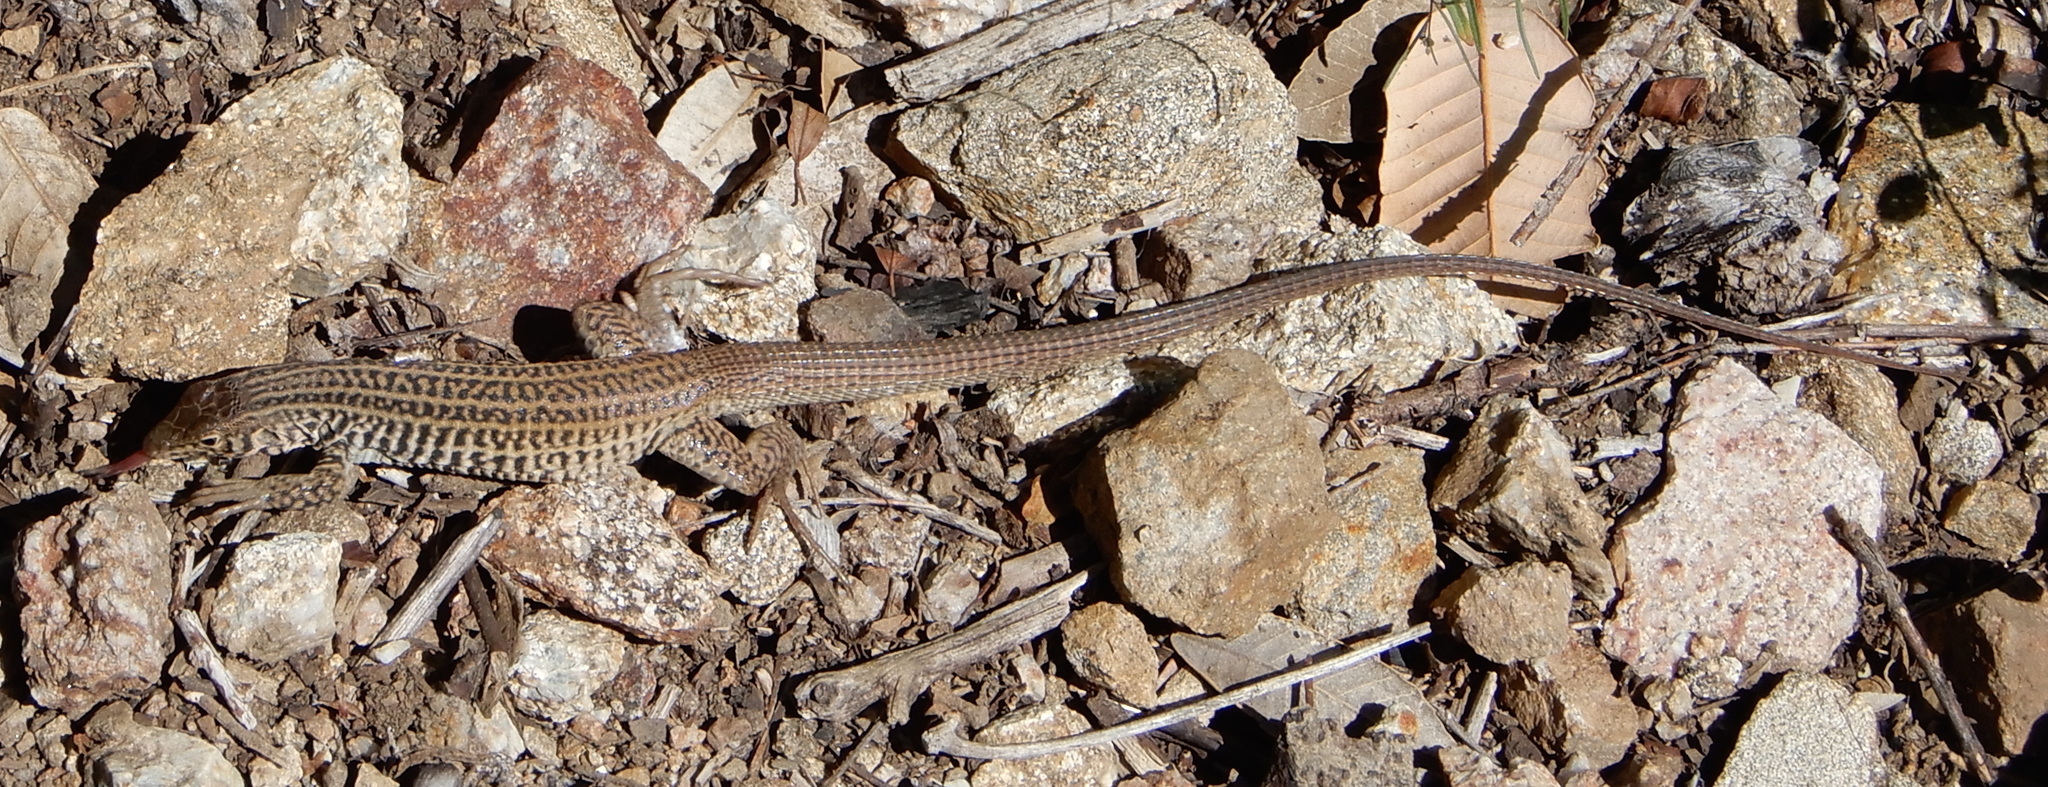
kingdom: Animalia
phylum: Chordata
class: Squamata
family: Teiidae
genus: Aspidoscelis
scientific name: Aspidoscelis tigris
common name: Tiger whiptail
